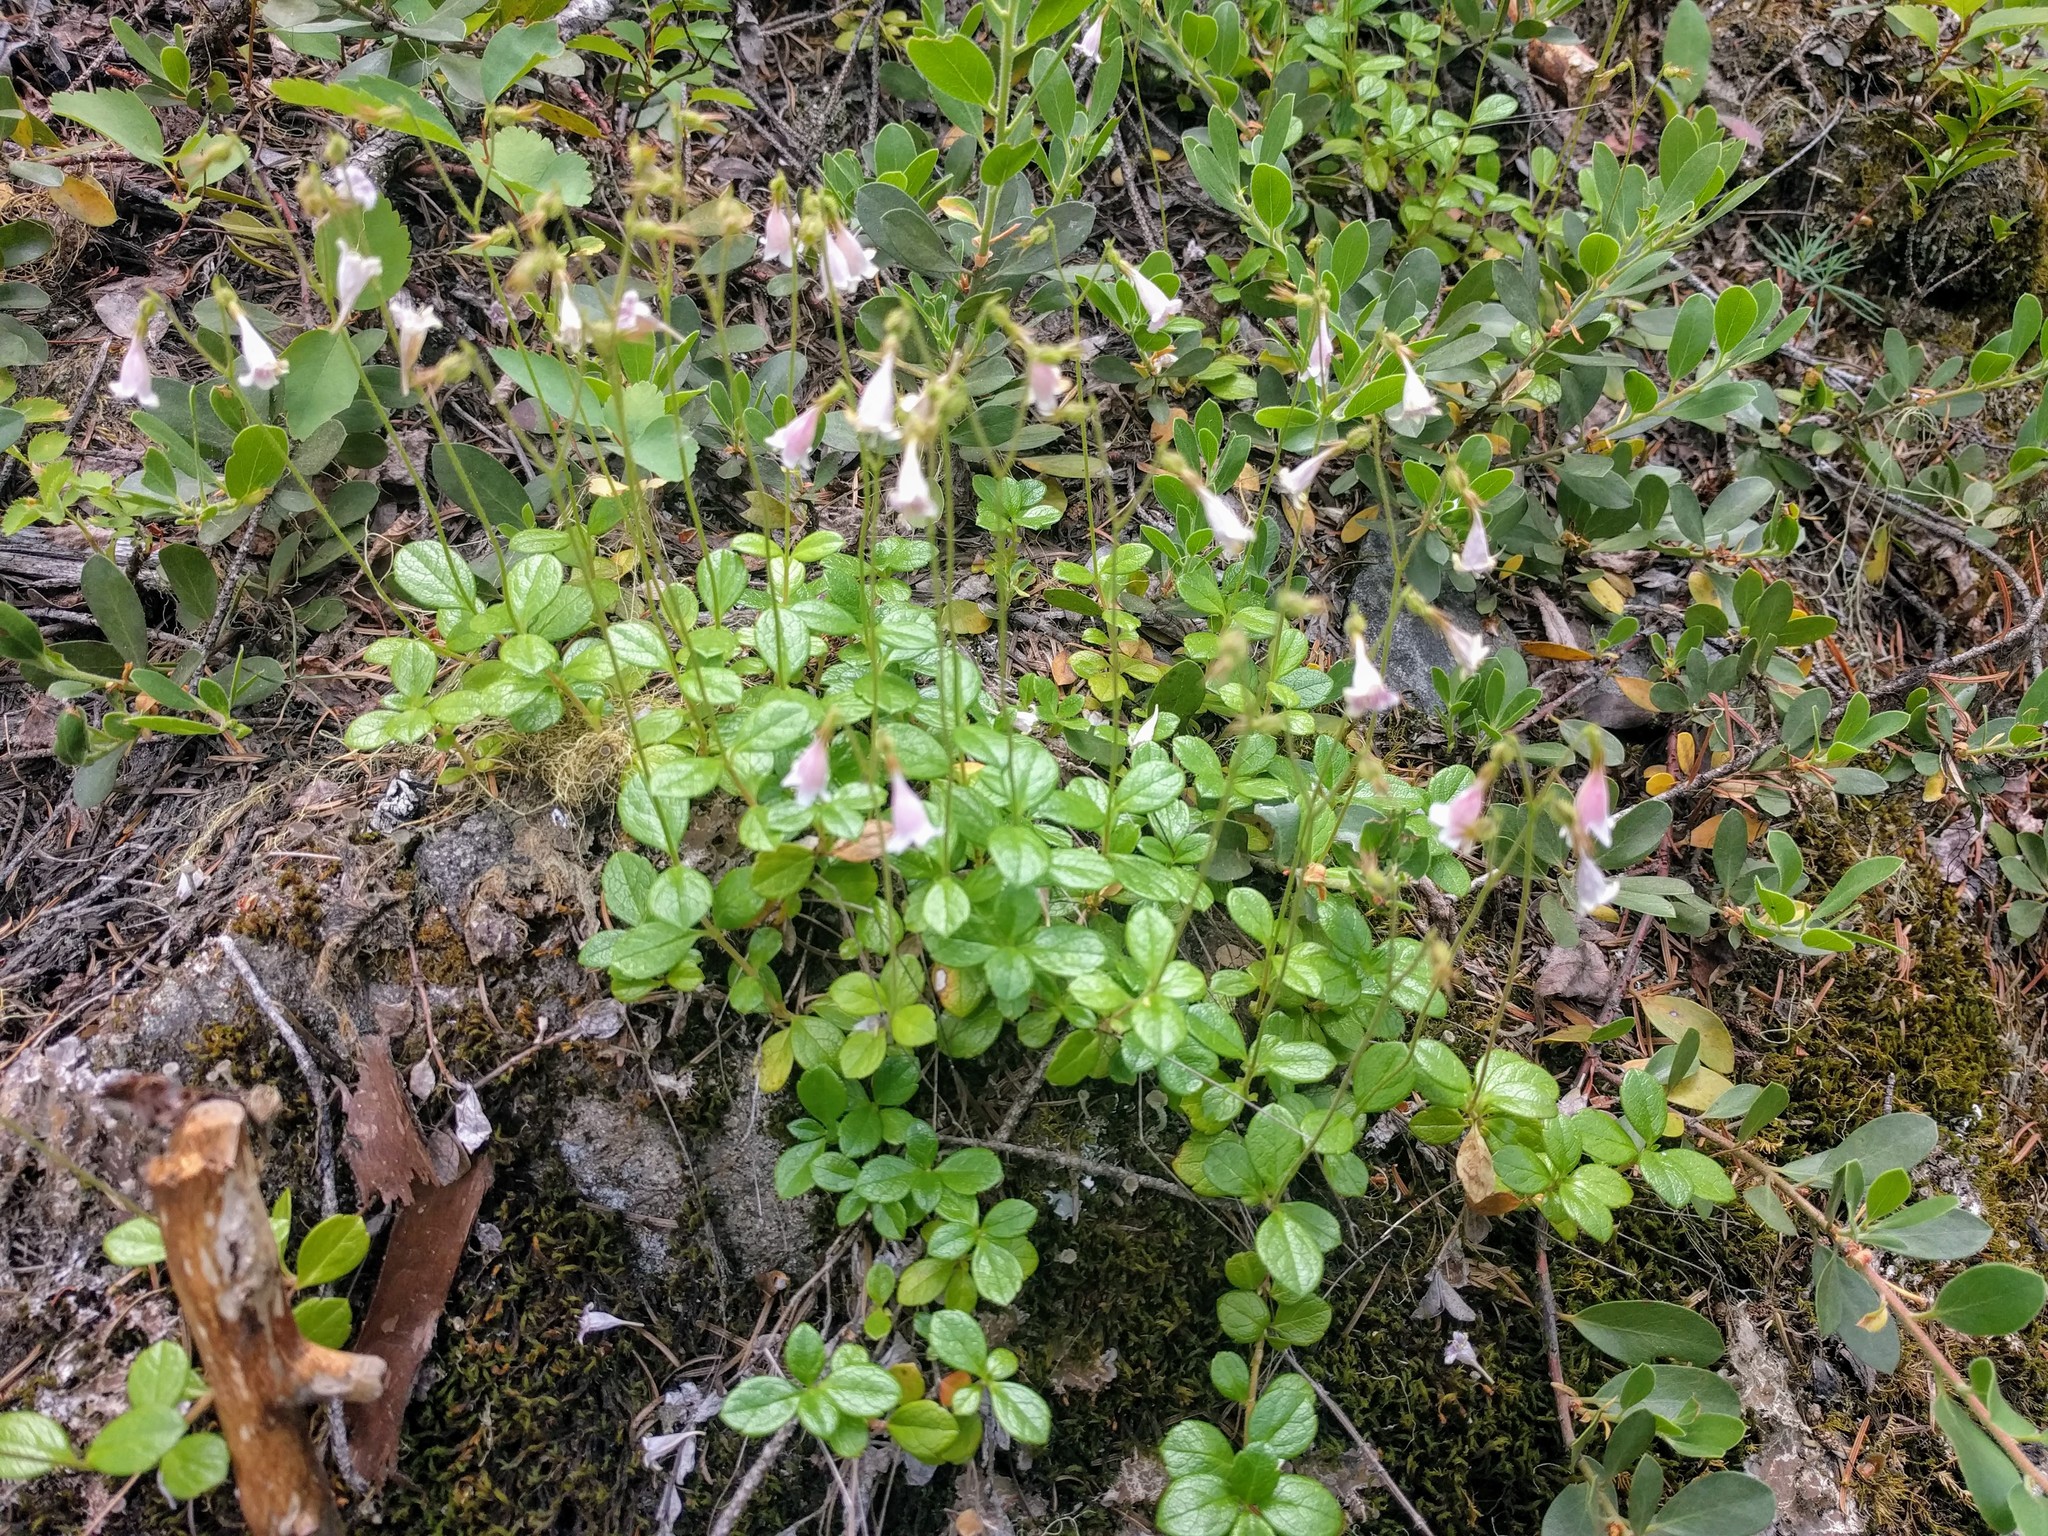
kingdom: Plantae
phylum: Tracheophyta
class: Magnoliopsida
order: Dipsacales
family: Caprifoliaceae
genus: Linnaea
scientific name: Linnaea borealis
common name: Twinflower
